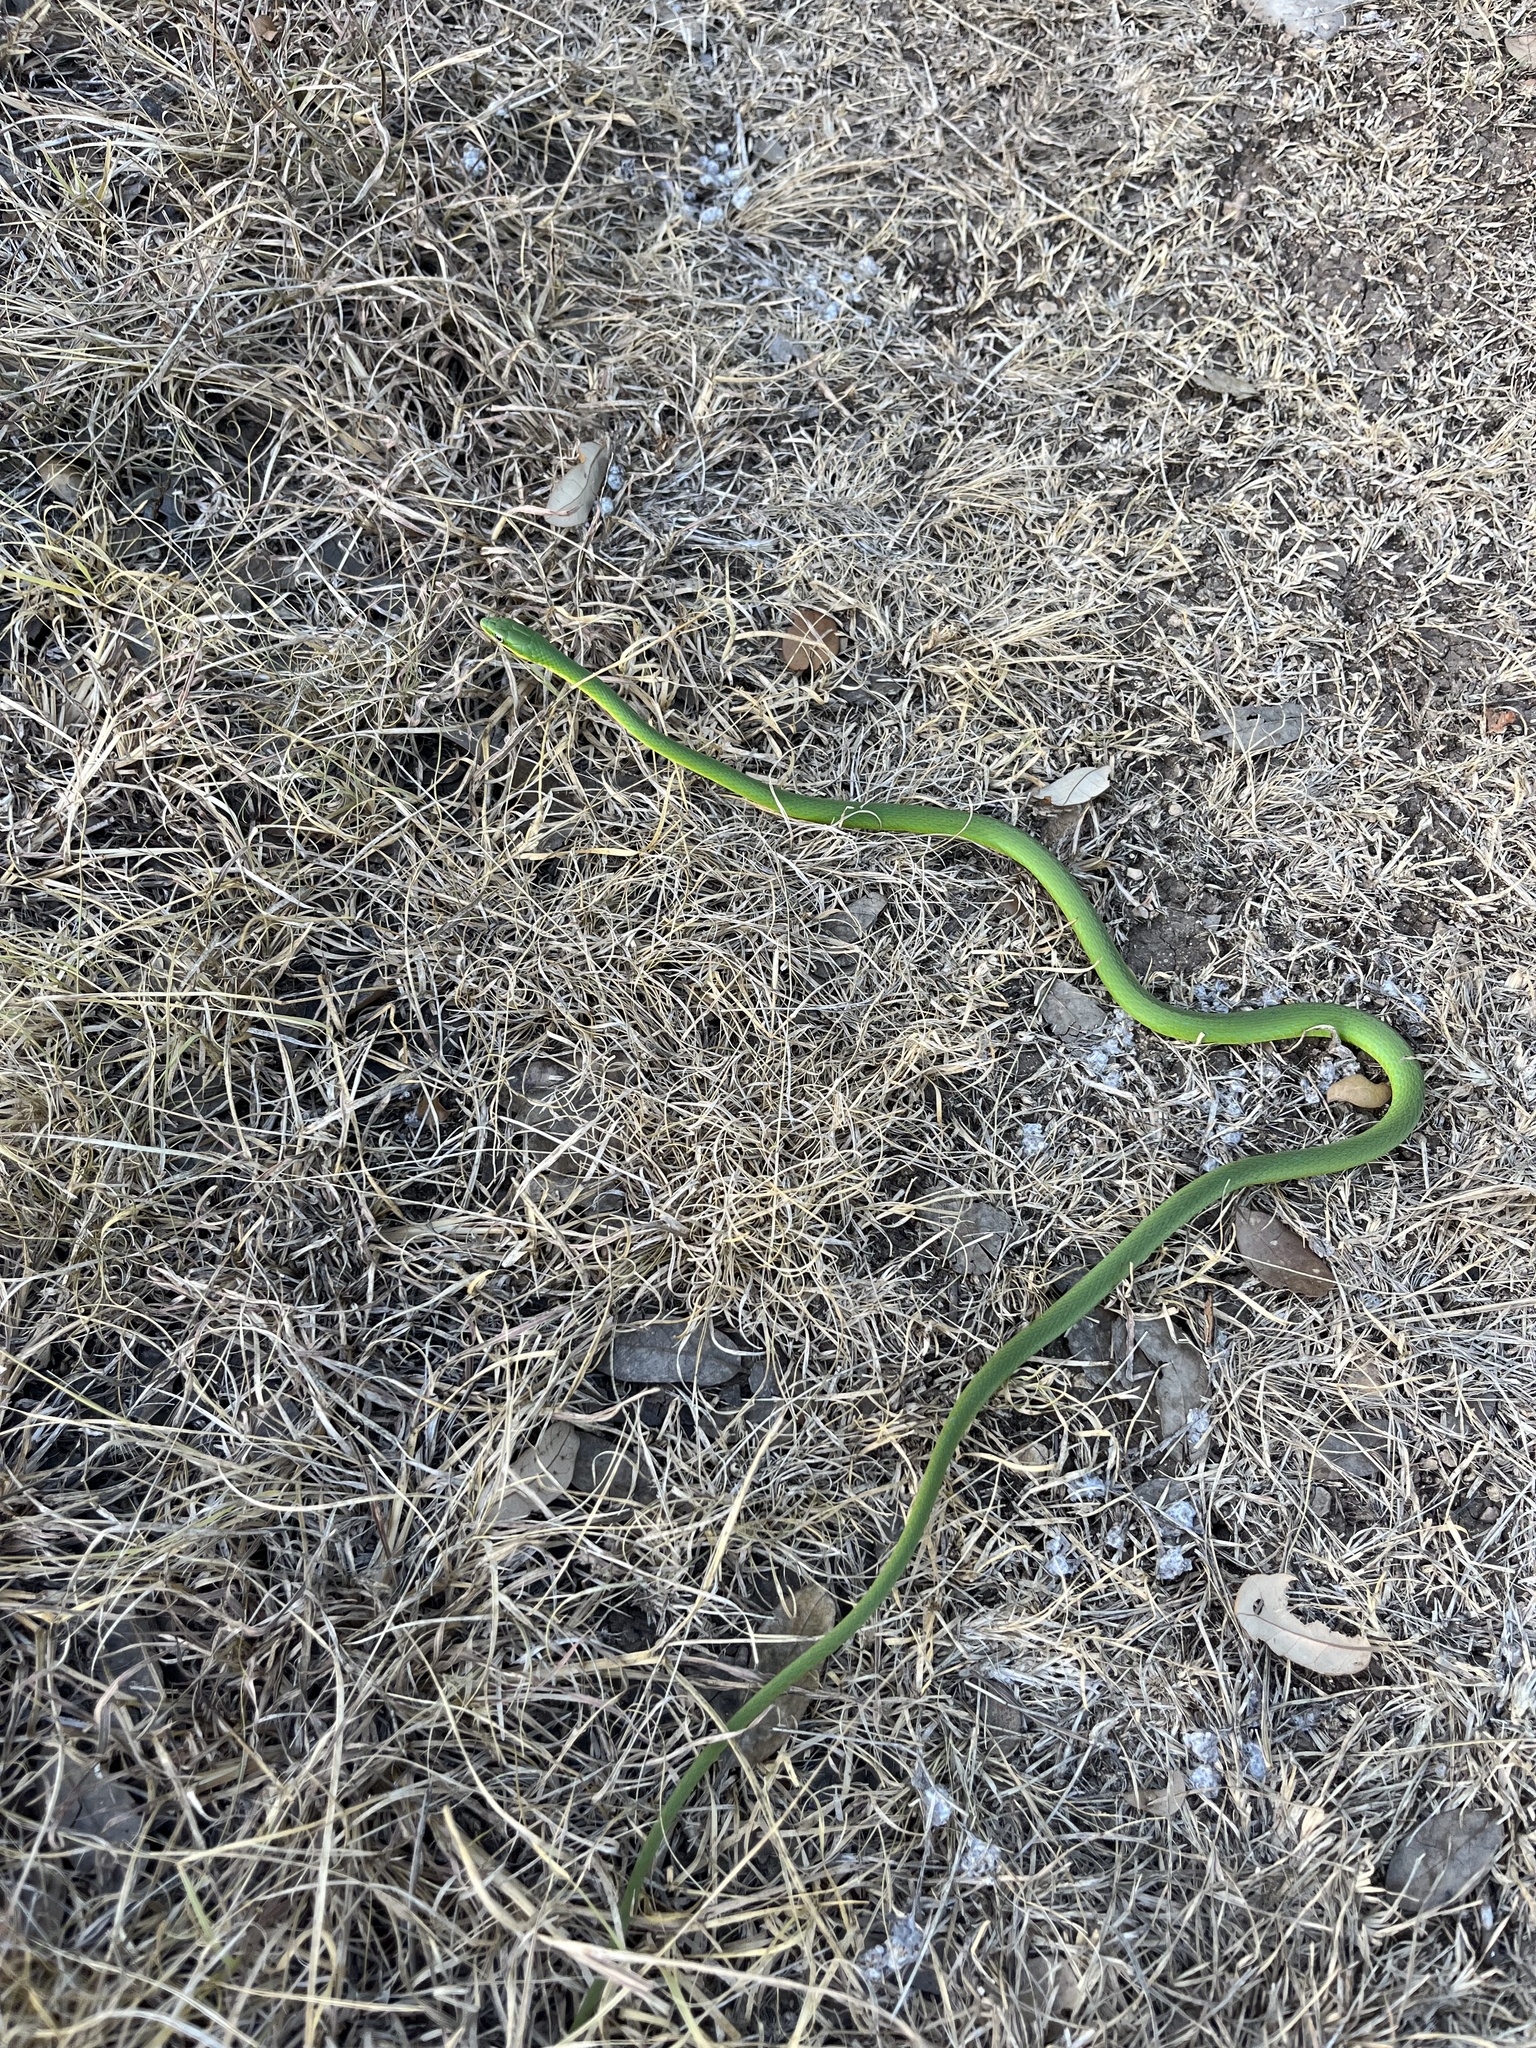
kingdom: Animalia
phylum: Chordata
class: Squamata
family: Colubridae
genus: Opheodrys
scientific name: Opheodrys aestivus
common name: Rough greensnake
